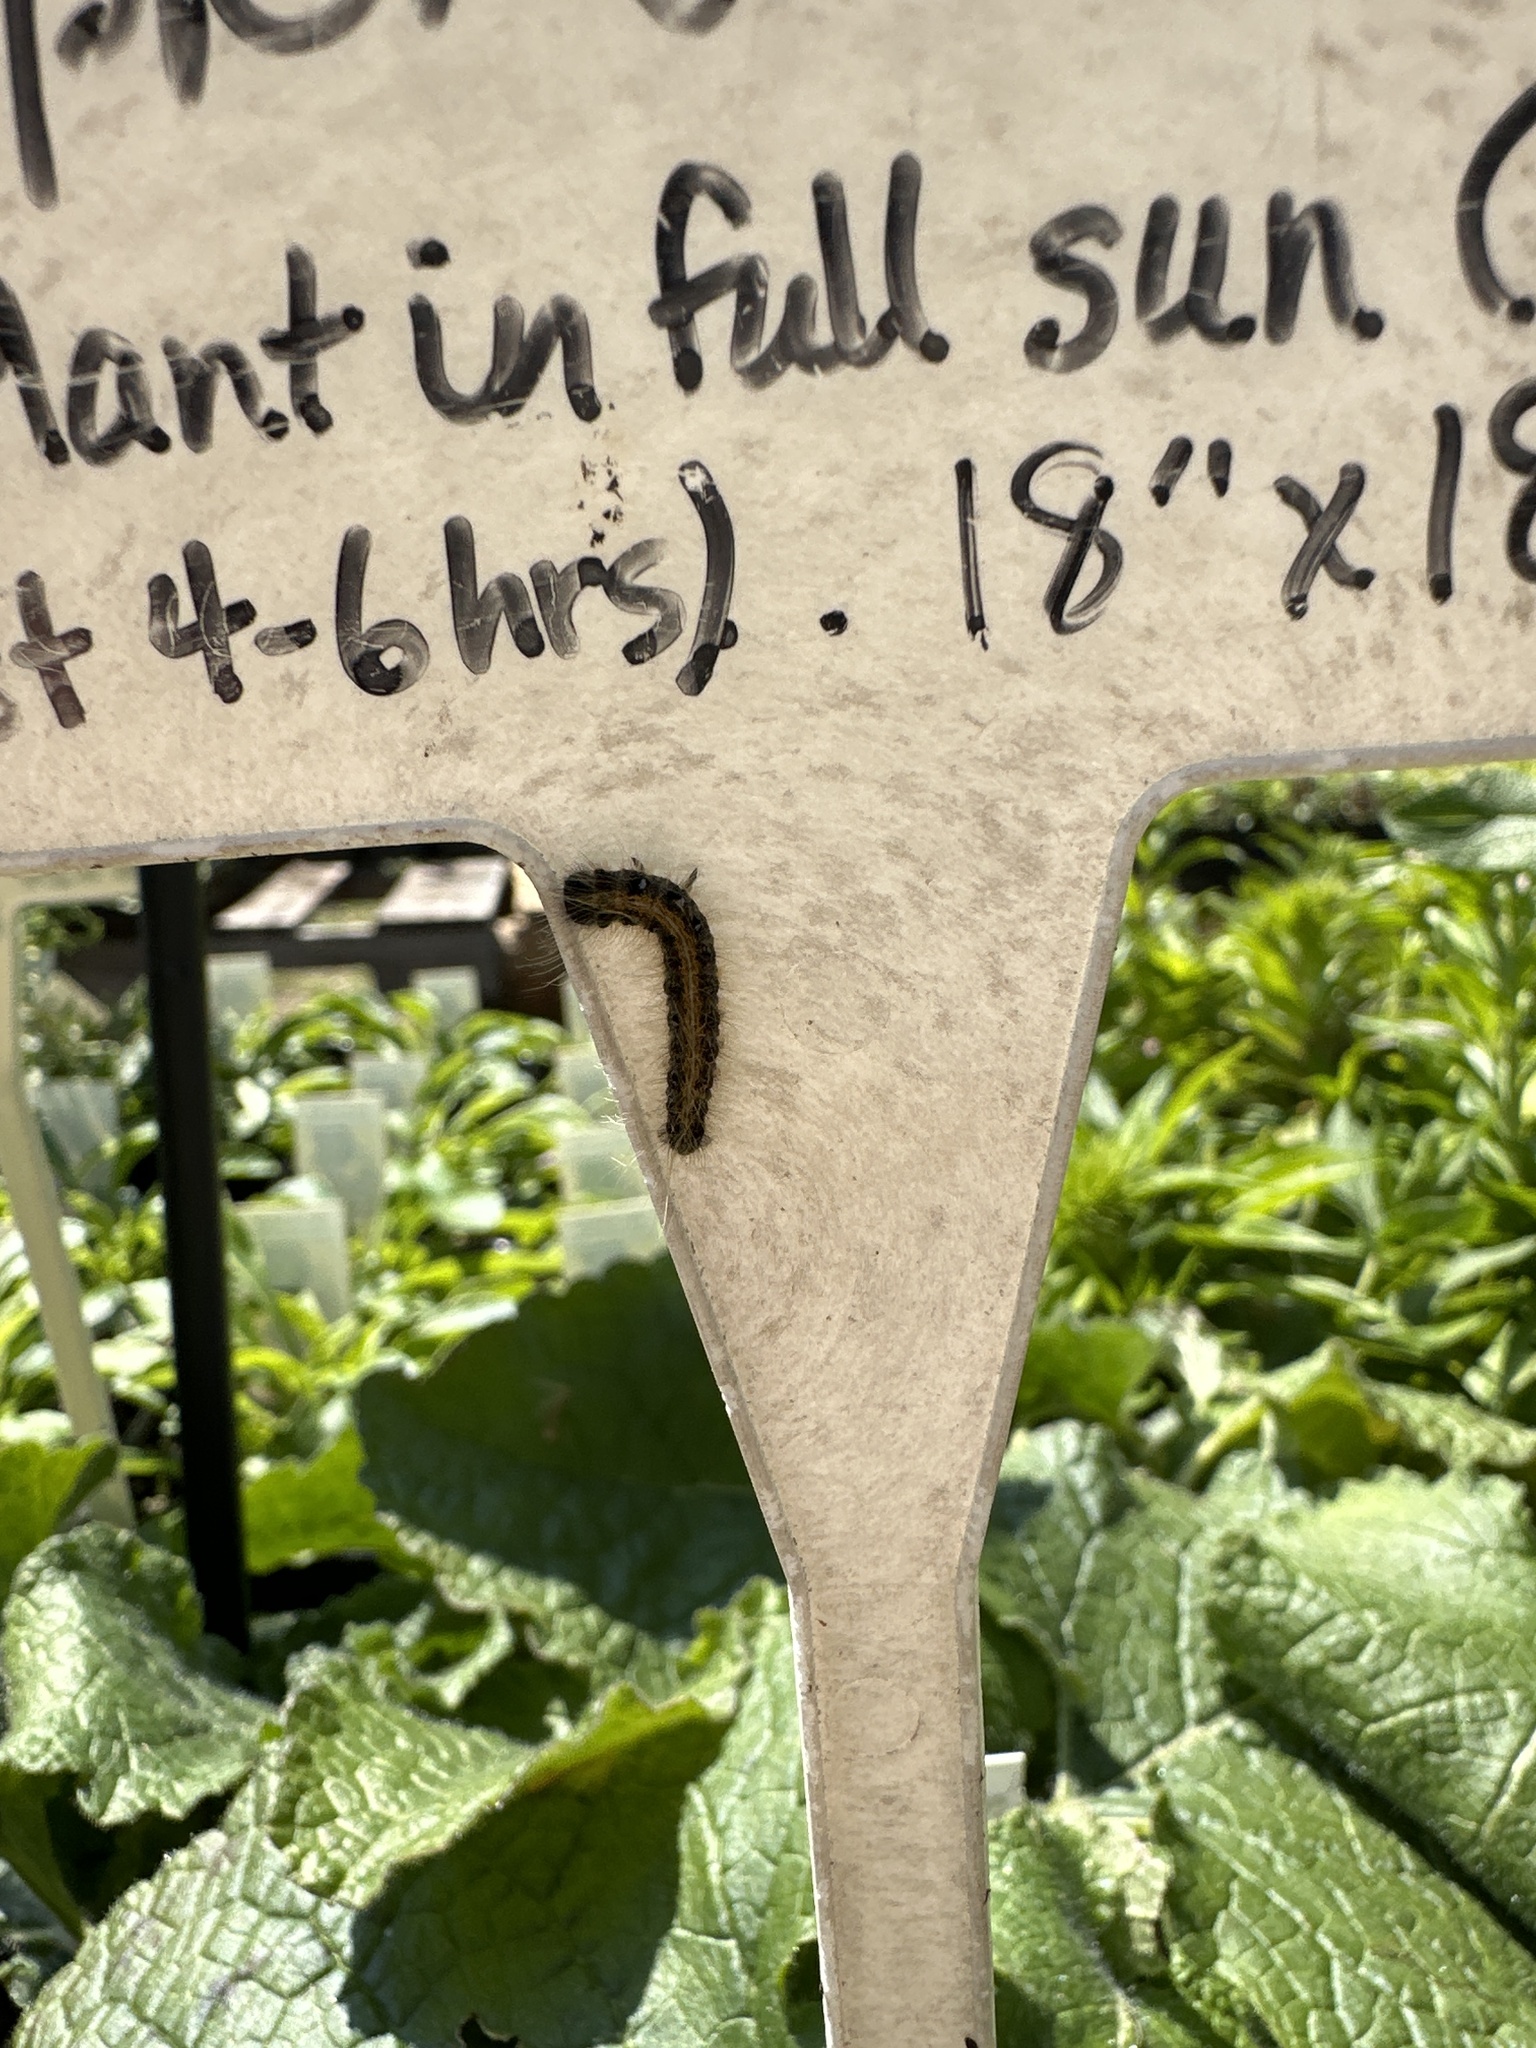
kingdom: Animalia
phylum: Arthropoda
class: Insecta
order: Lepidoptera
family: Lasiocampidae
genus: Malacosoma
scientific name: Malacosoma americana
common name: Eastern tent caterpillar moth
